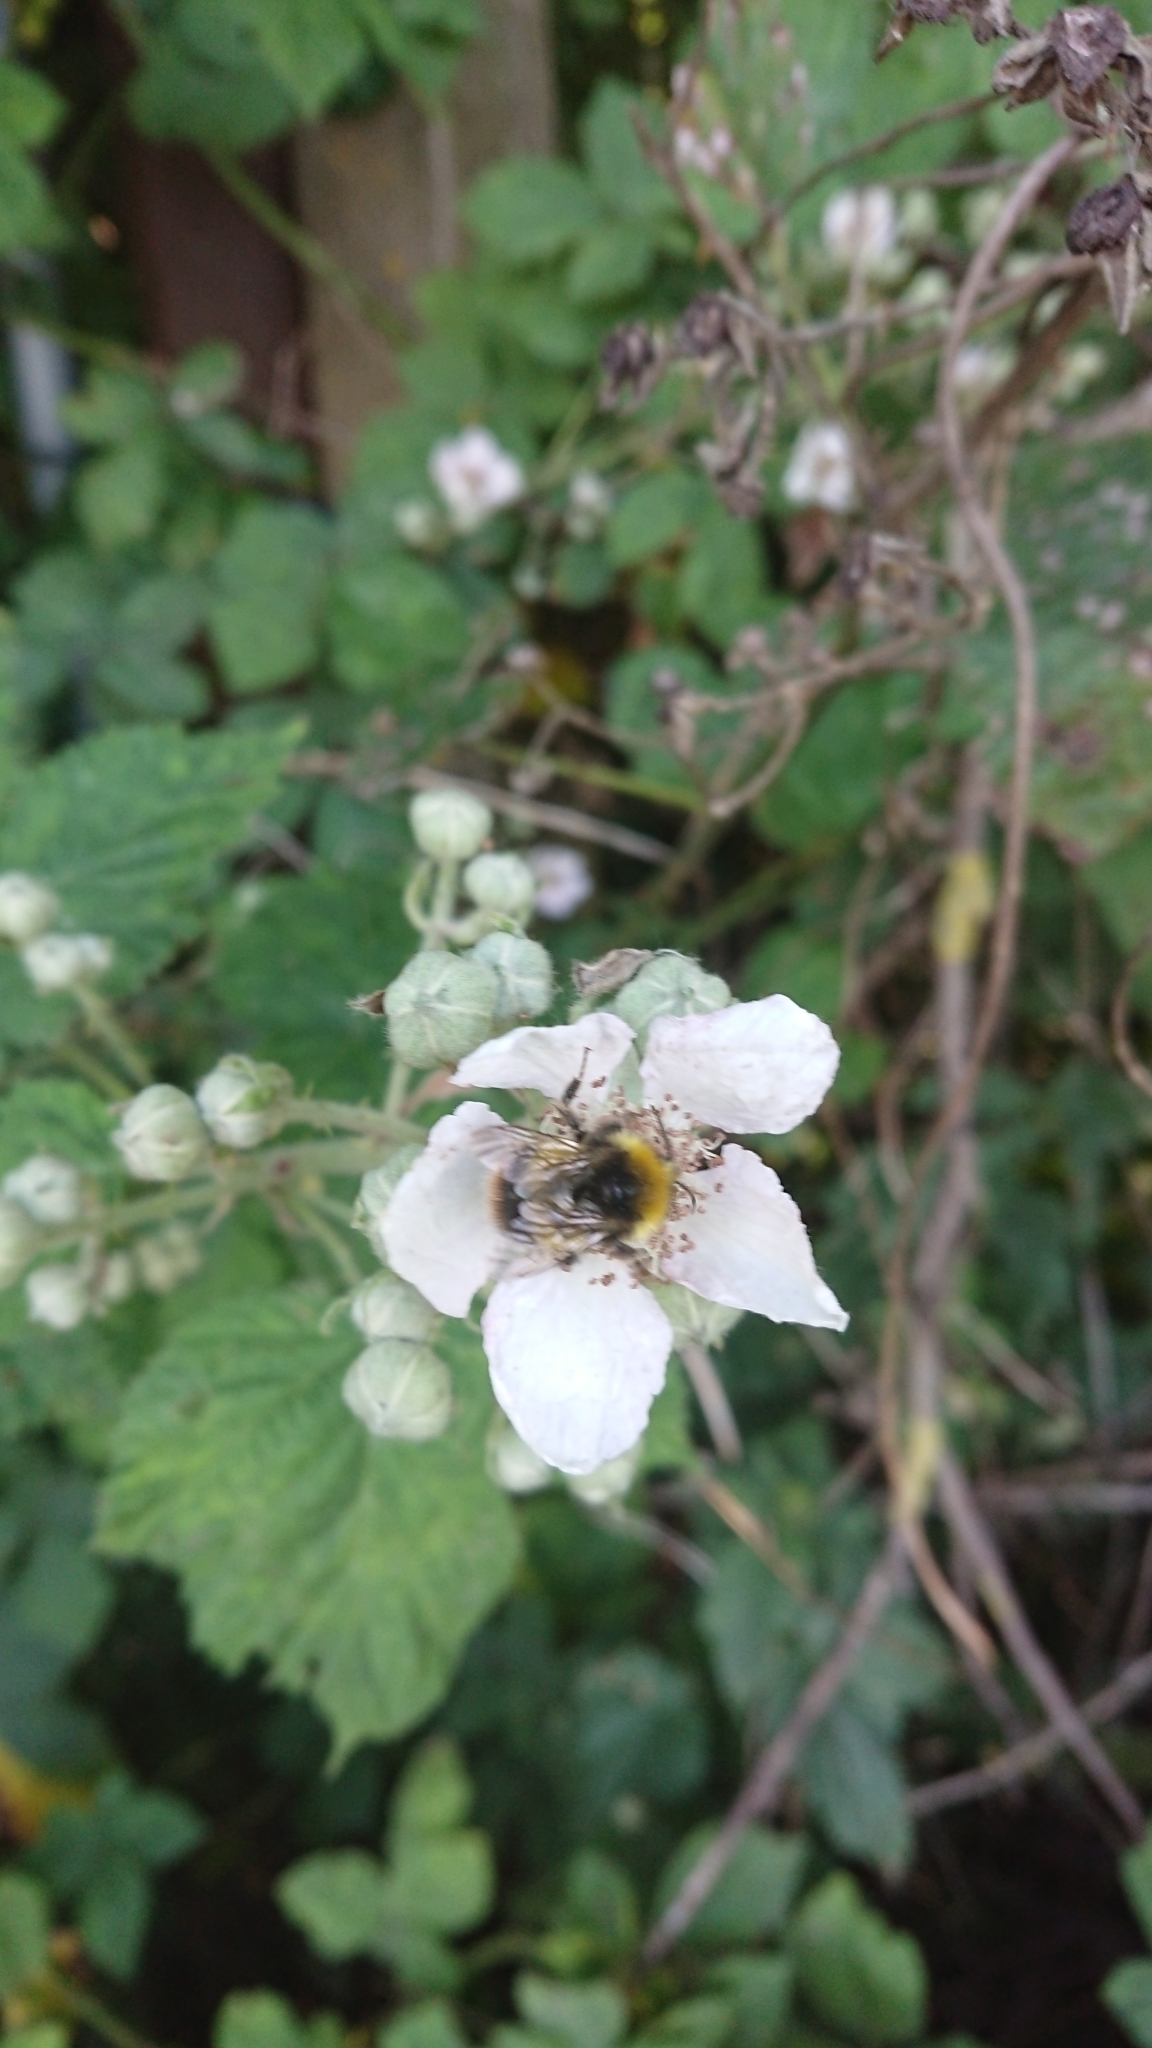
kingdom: Animalia
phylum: Arthropoda
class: Insecta
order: Hymenoptera
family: Apidae
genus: Bombus
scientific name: Bombus pratorum
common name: Early humble-bee
